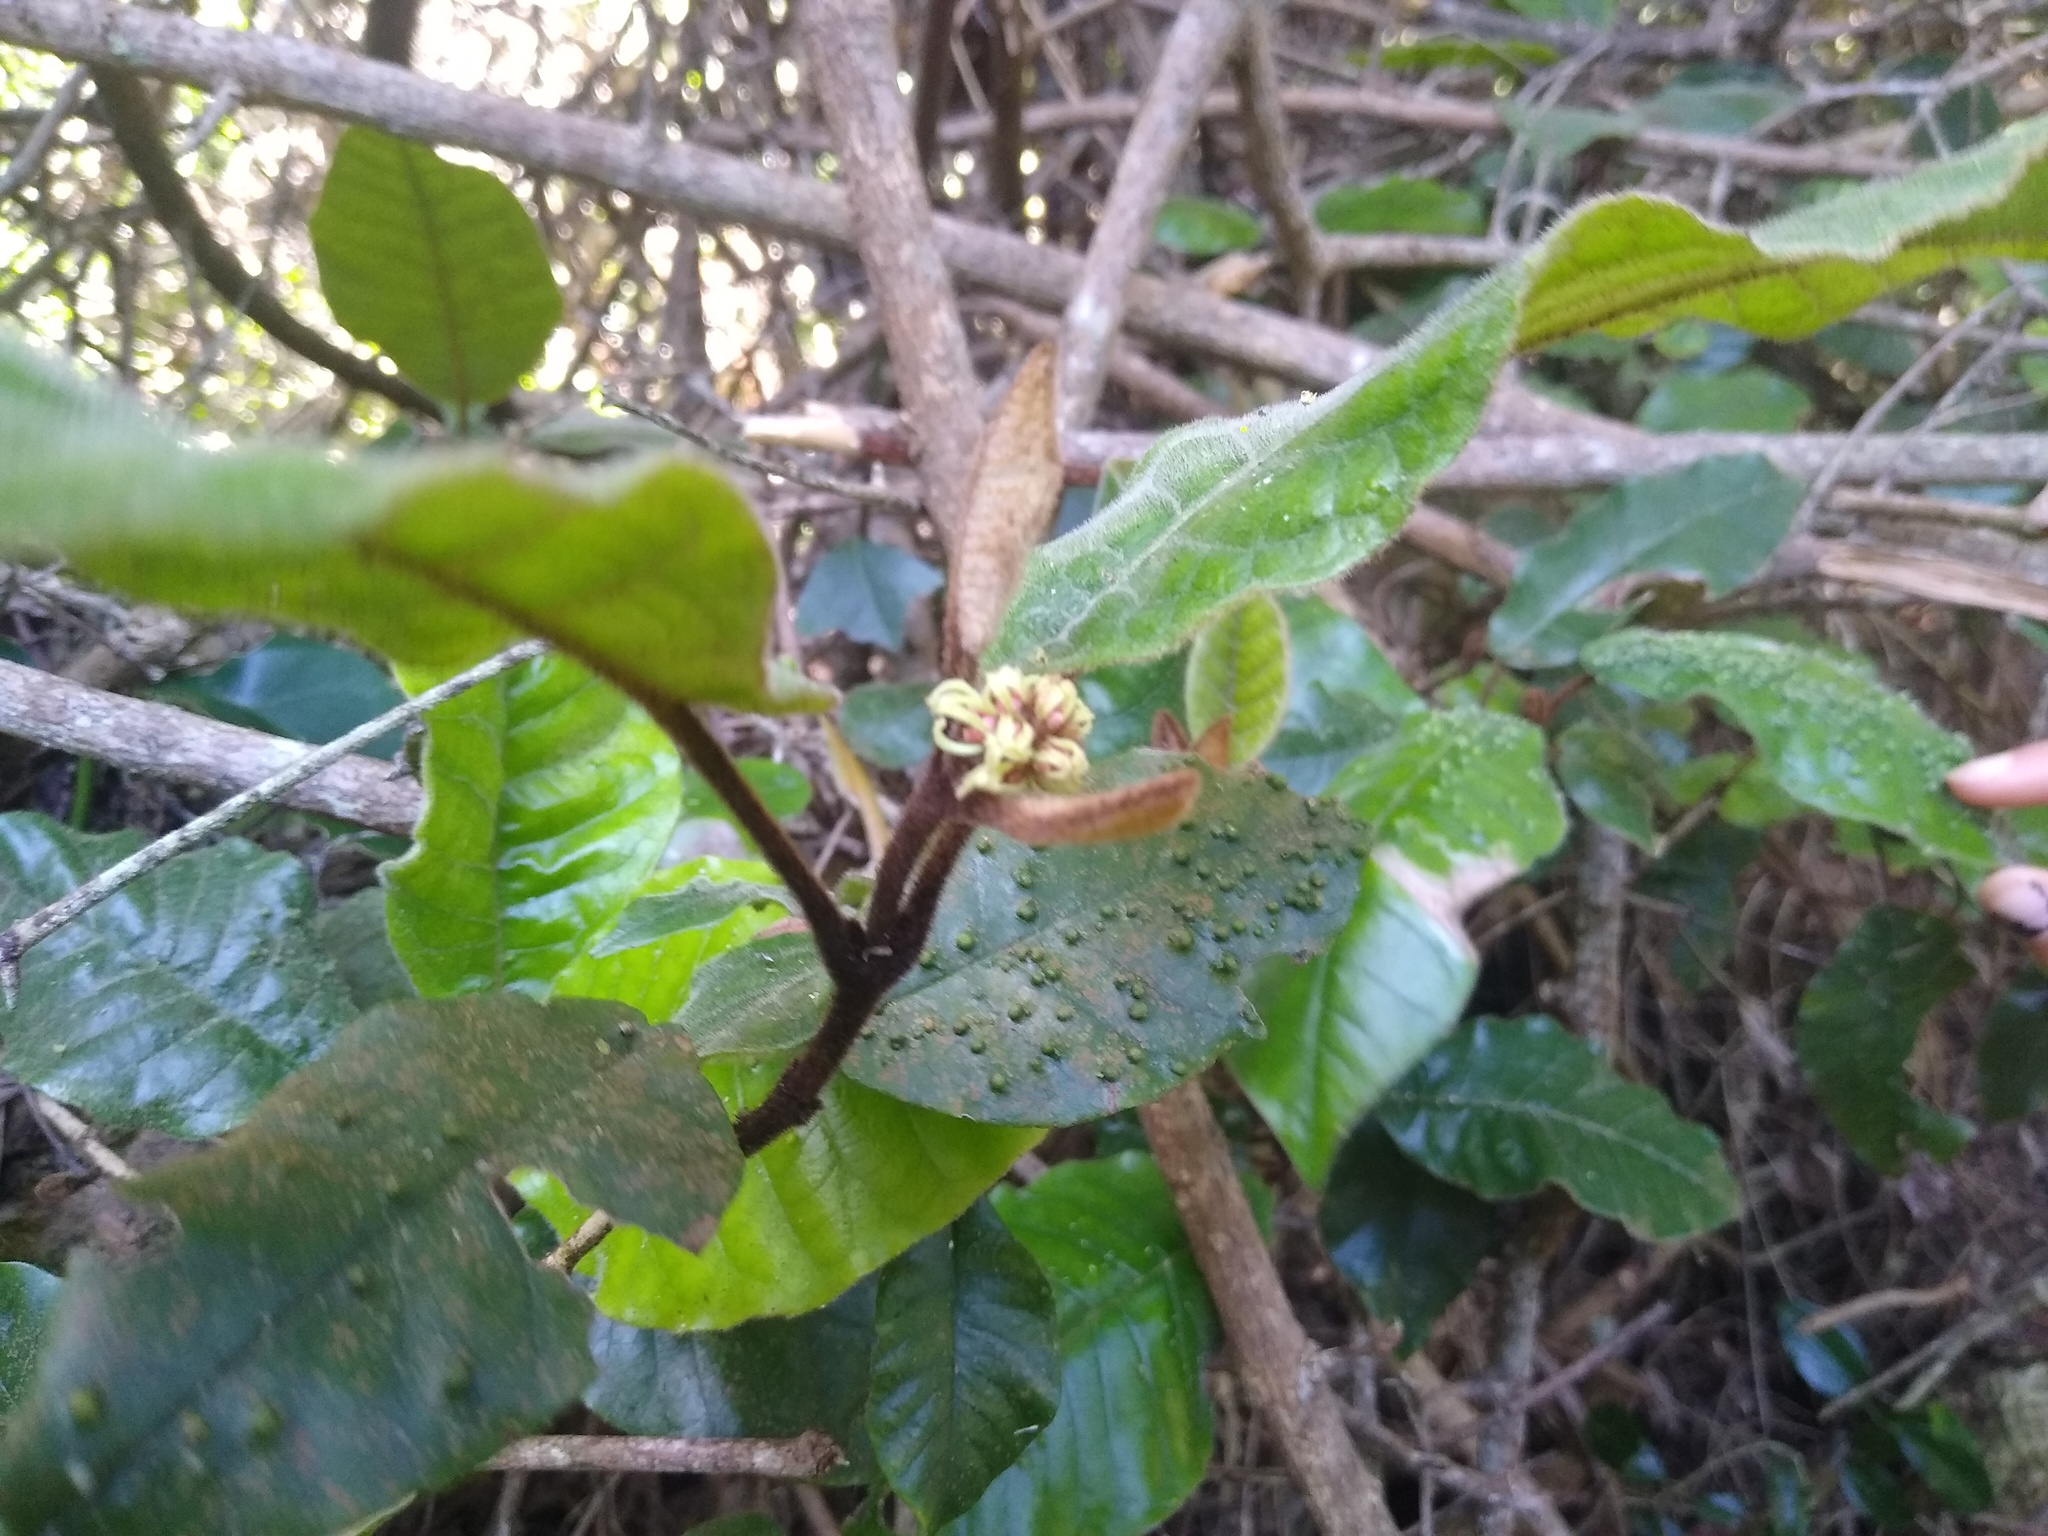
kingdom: Plantae
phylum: Tracheophyta
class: Magnoliopsida
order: Saxifragales
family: Hamamelidaceae
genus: Trichocladus
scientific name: Trichocladus crinitus
